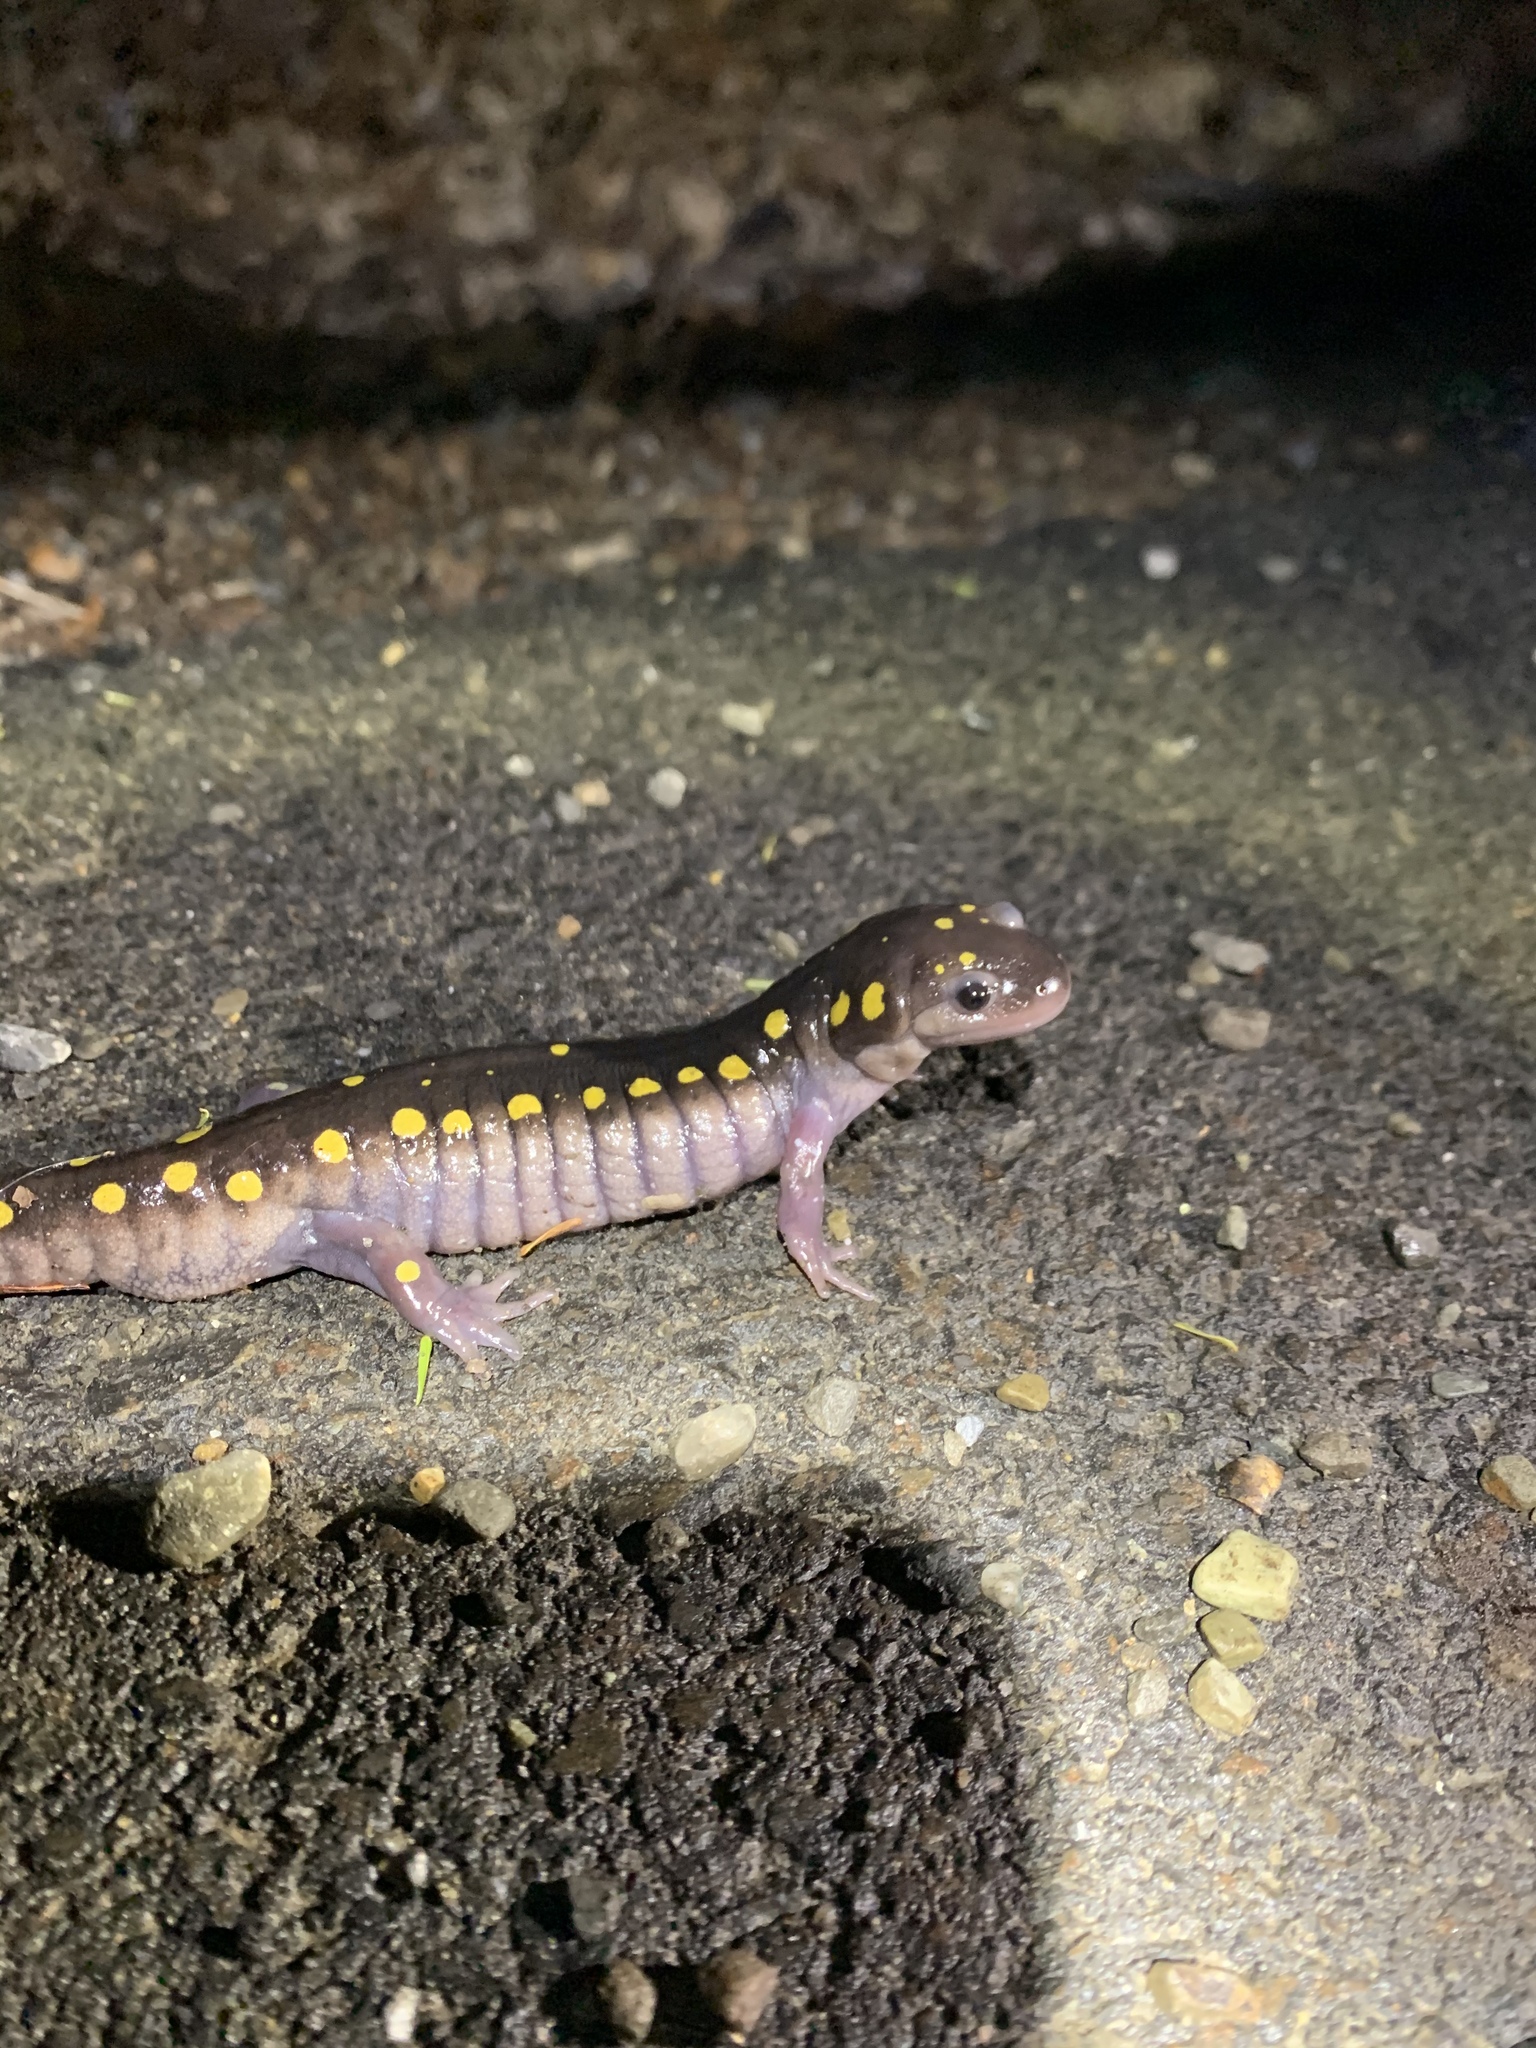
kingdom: Animalia
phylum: Chordata
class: Amphibia
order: Caudata
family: Ambystomatidae
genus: Ambystoma
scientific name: Ambystoma maculatum
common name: Spotted salamander
